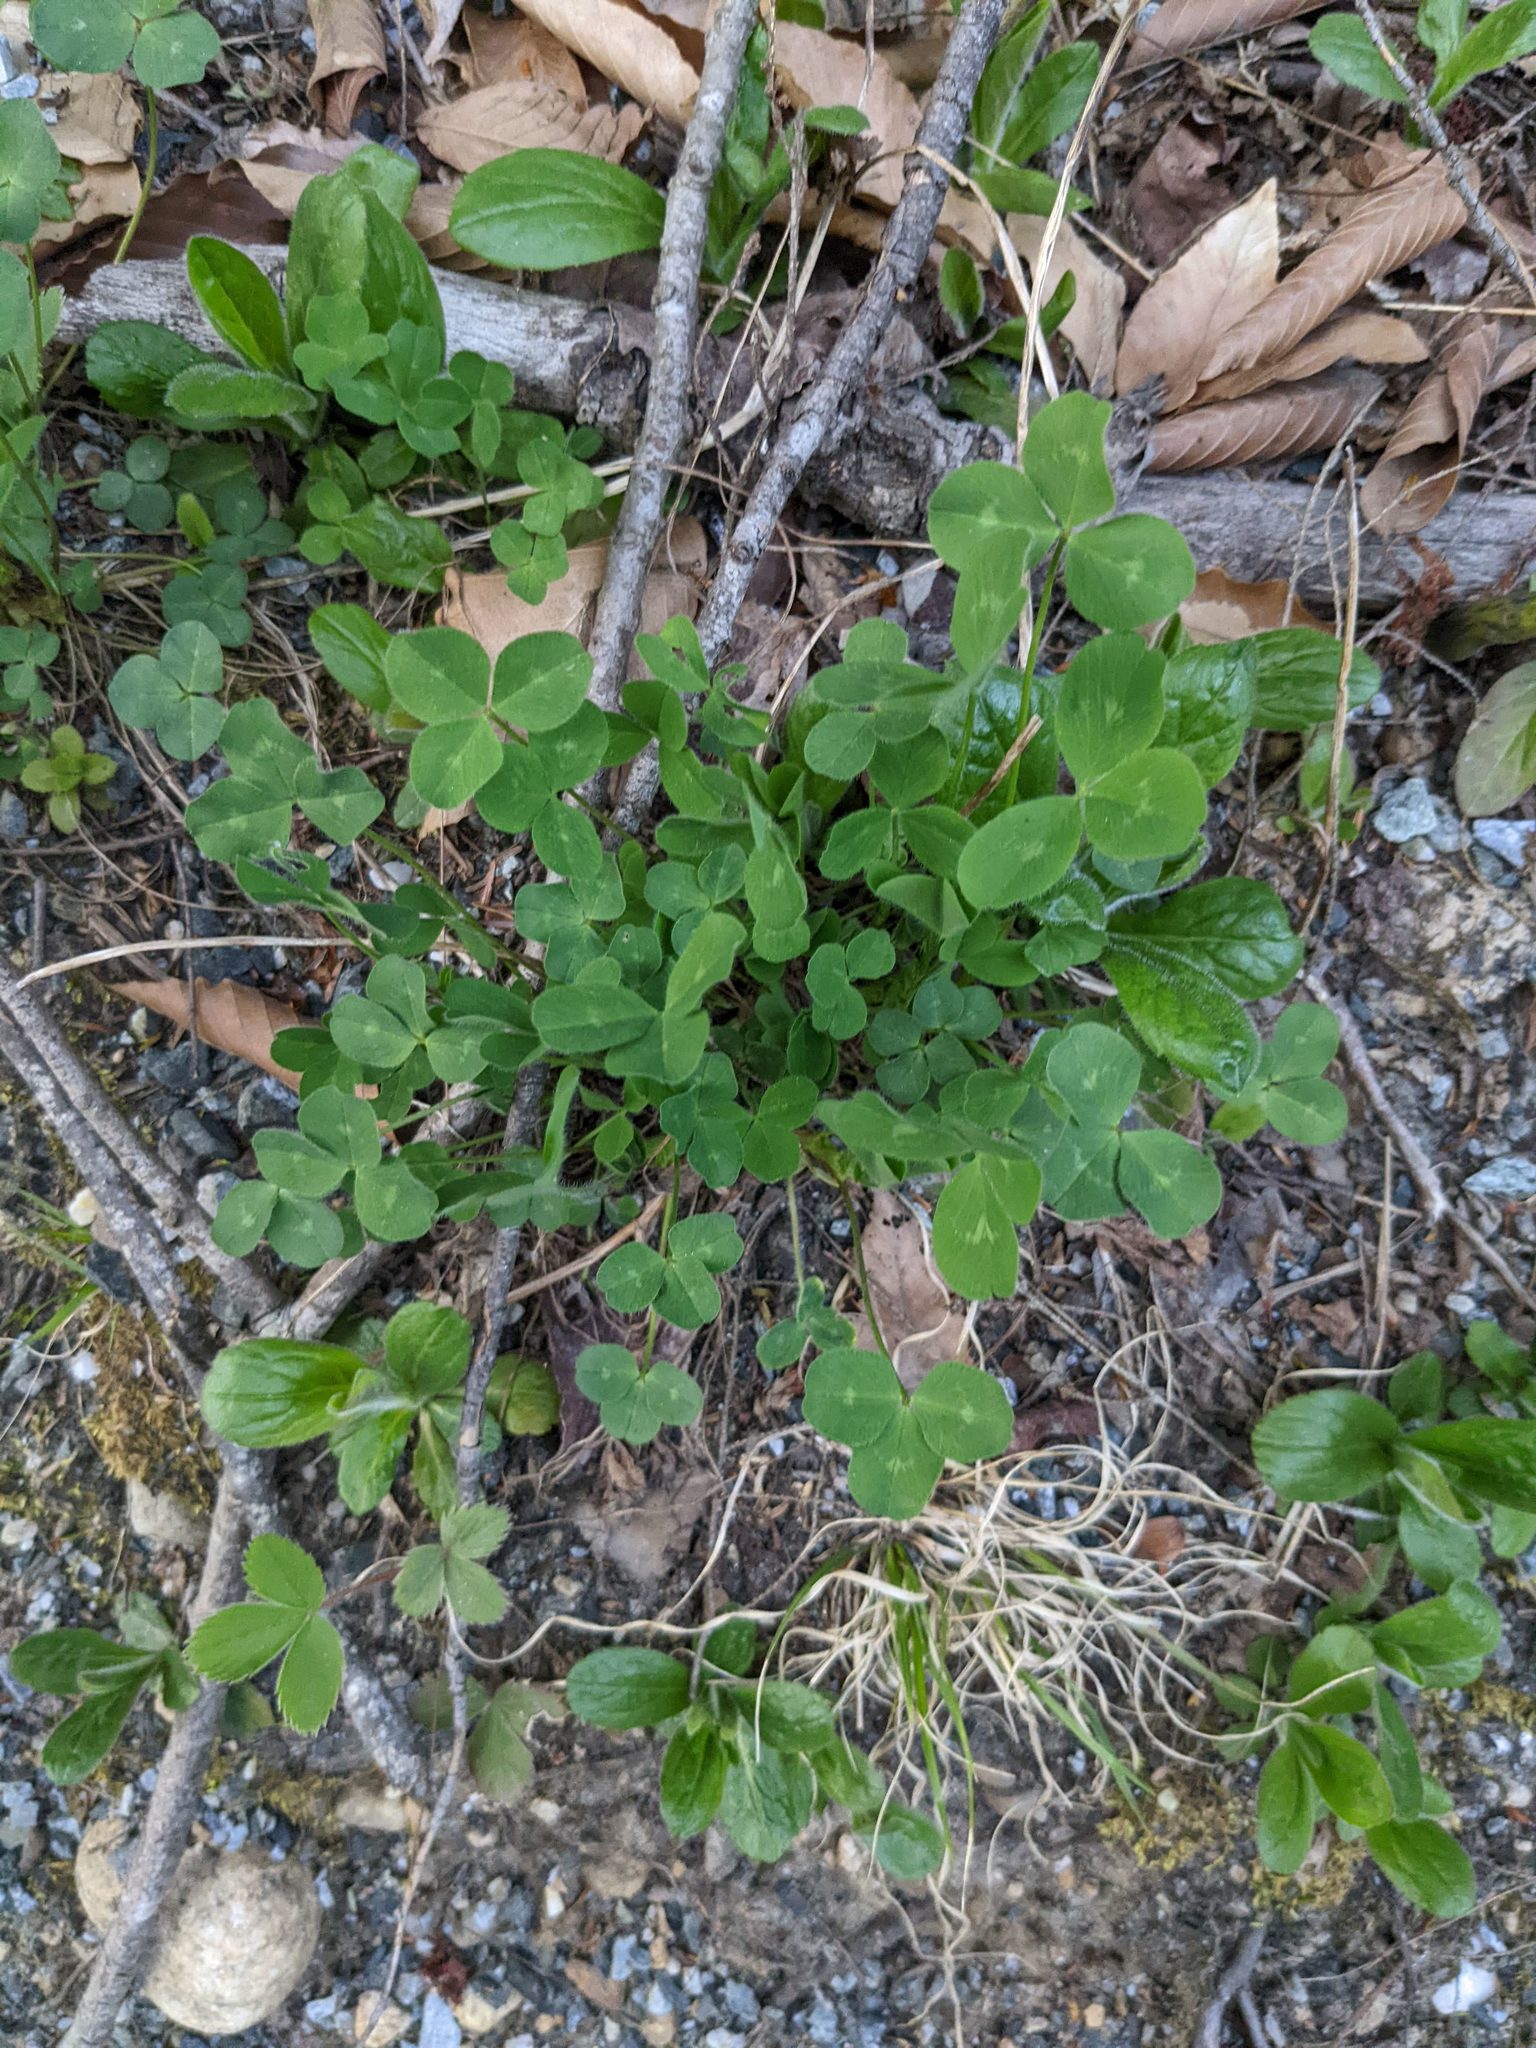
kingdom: Plantae
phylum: Tracheophyta
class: Magnoliopsida
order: Fabales
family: Fabaceae
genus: Trifolium
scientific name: Trifolium pratense
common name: Red clover
